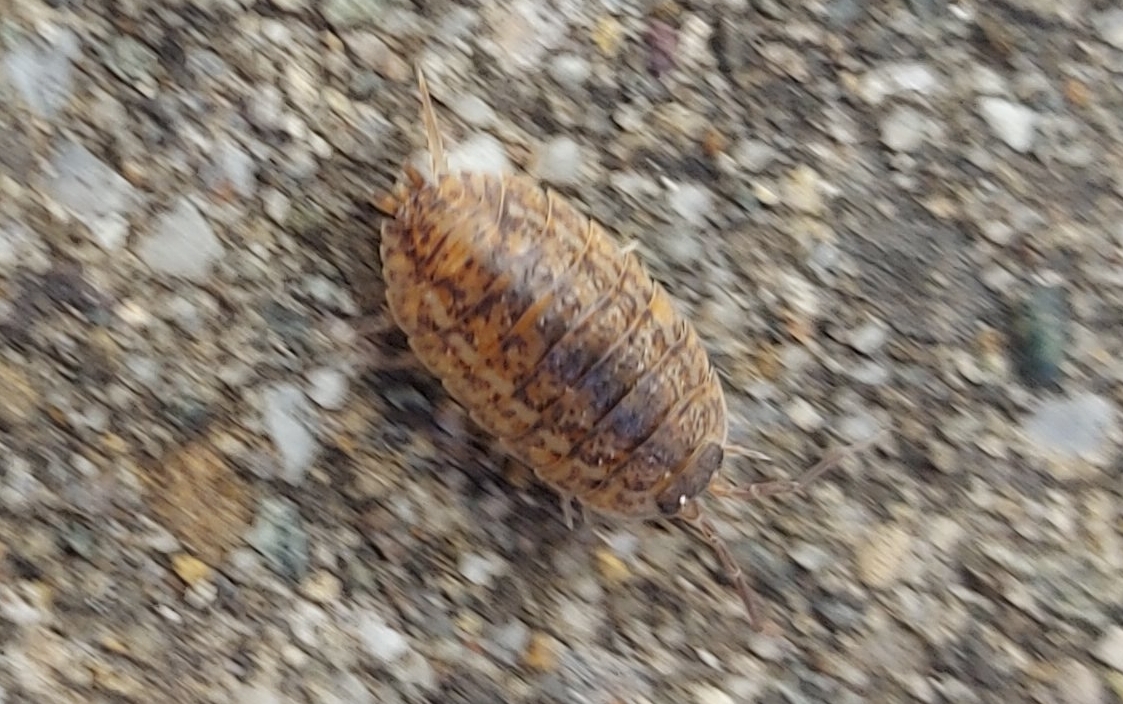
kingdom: Animalia
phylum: Arthropoda
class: Malacostraca
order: Isopoda
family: Trachelipodidae
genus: Trachelipus
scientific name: Trachelipus rathkii
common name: Isopod
